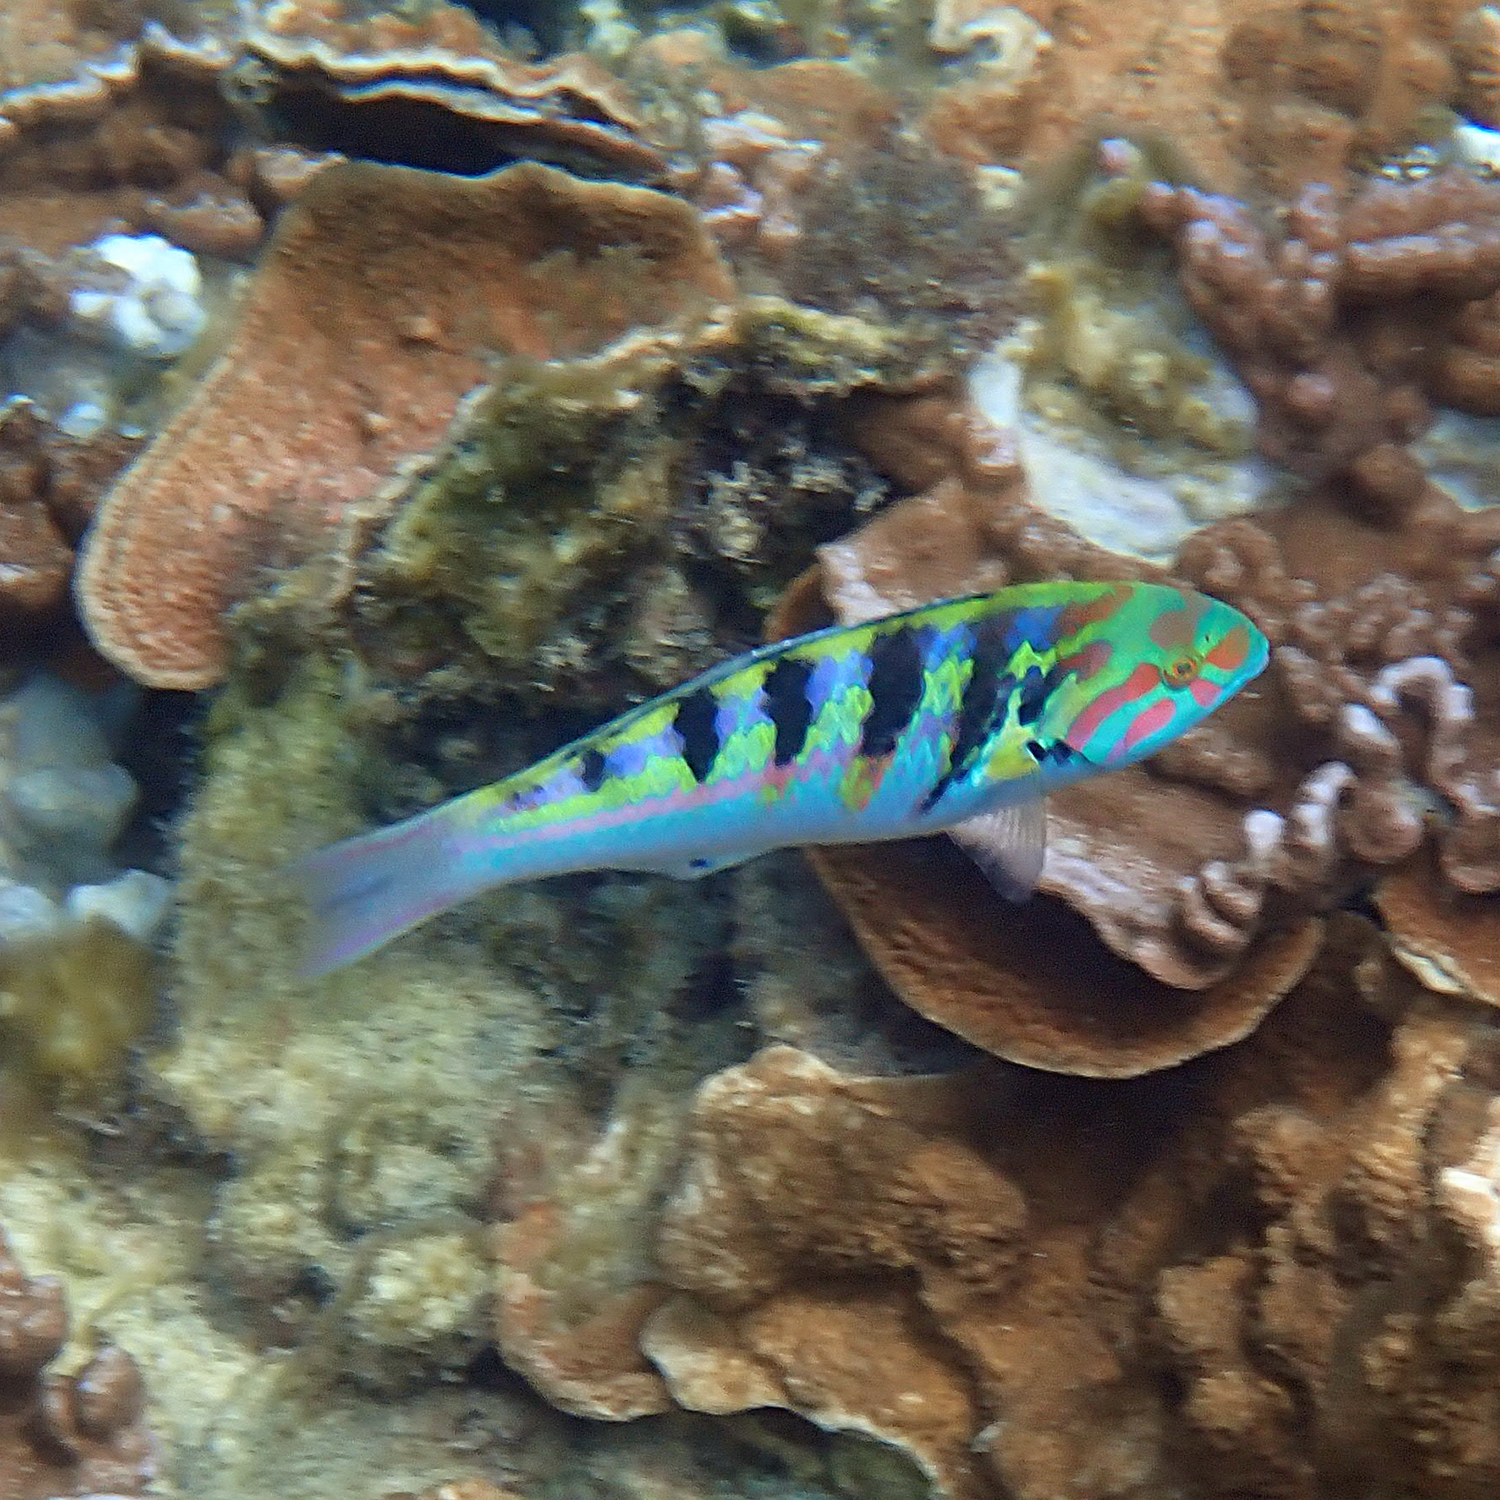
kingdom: Animalia
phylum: Chordata
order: Perciformes
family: Labridae
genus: Thalassoma
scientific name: Thalassoma hardwicke
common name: Sixbar wrasse
